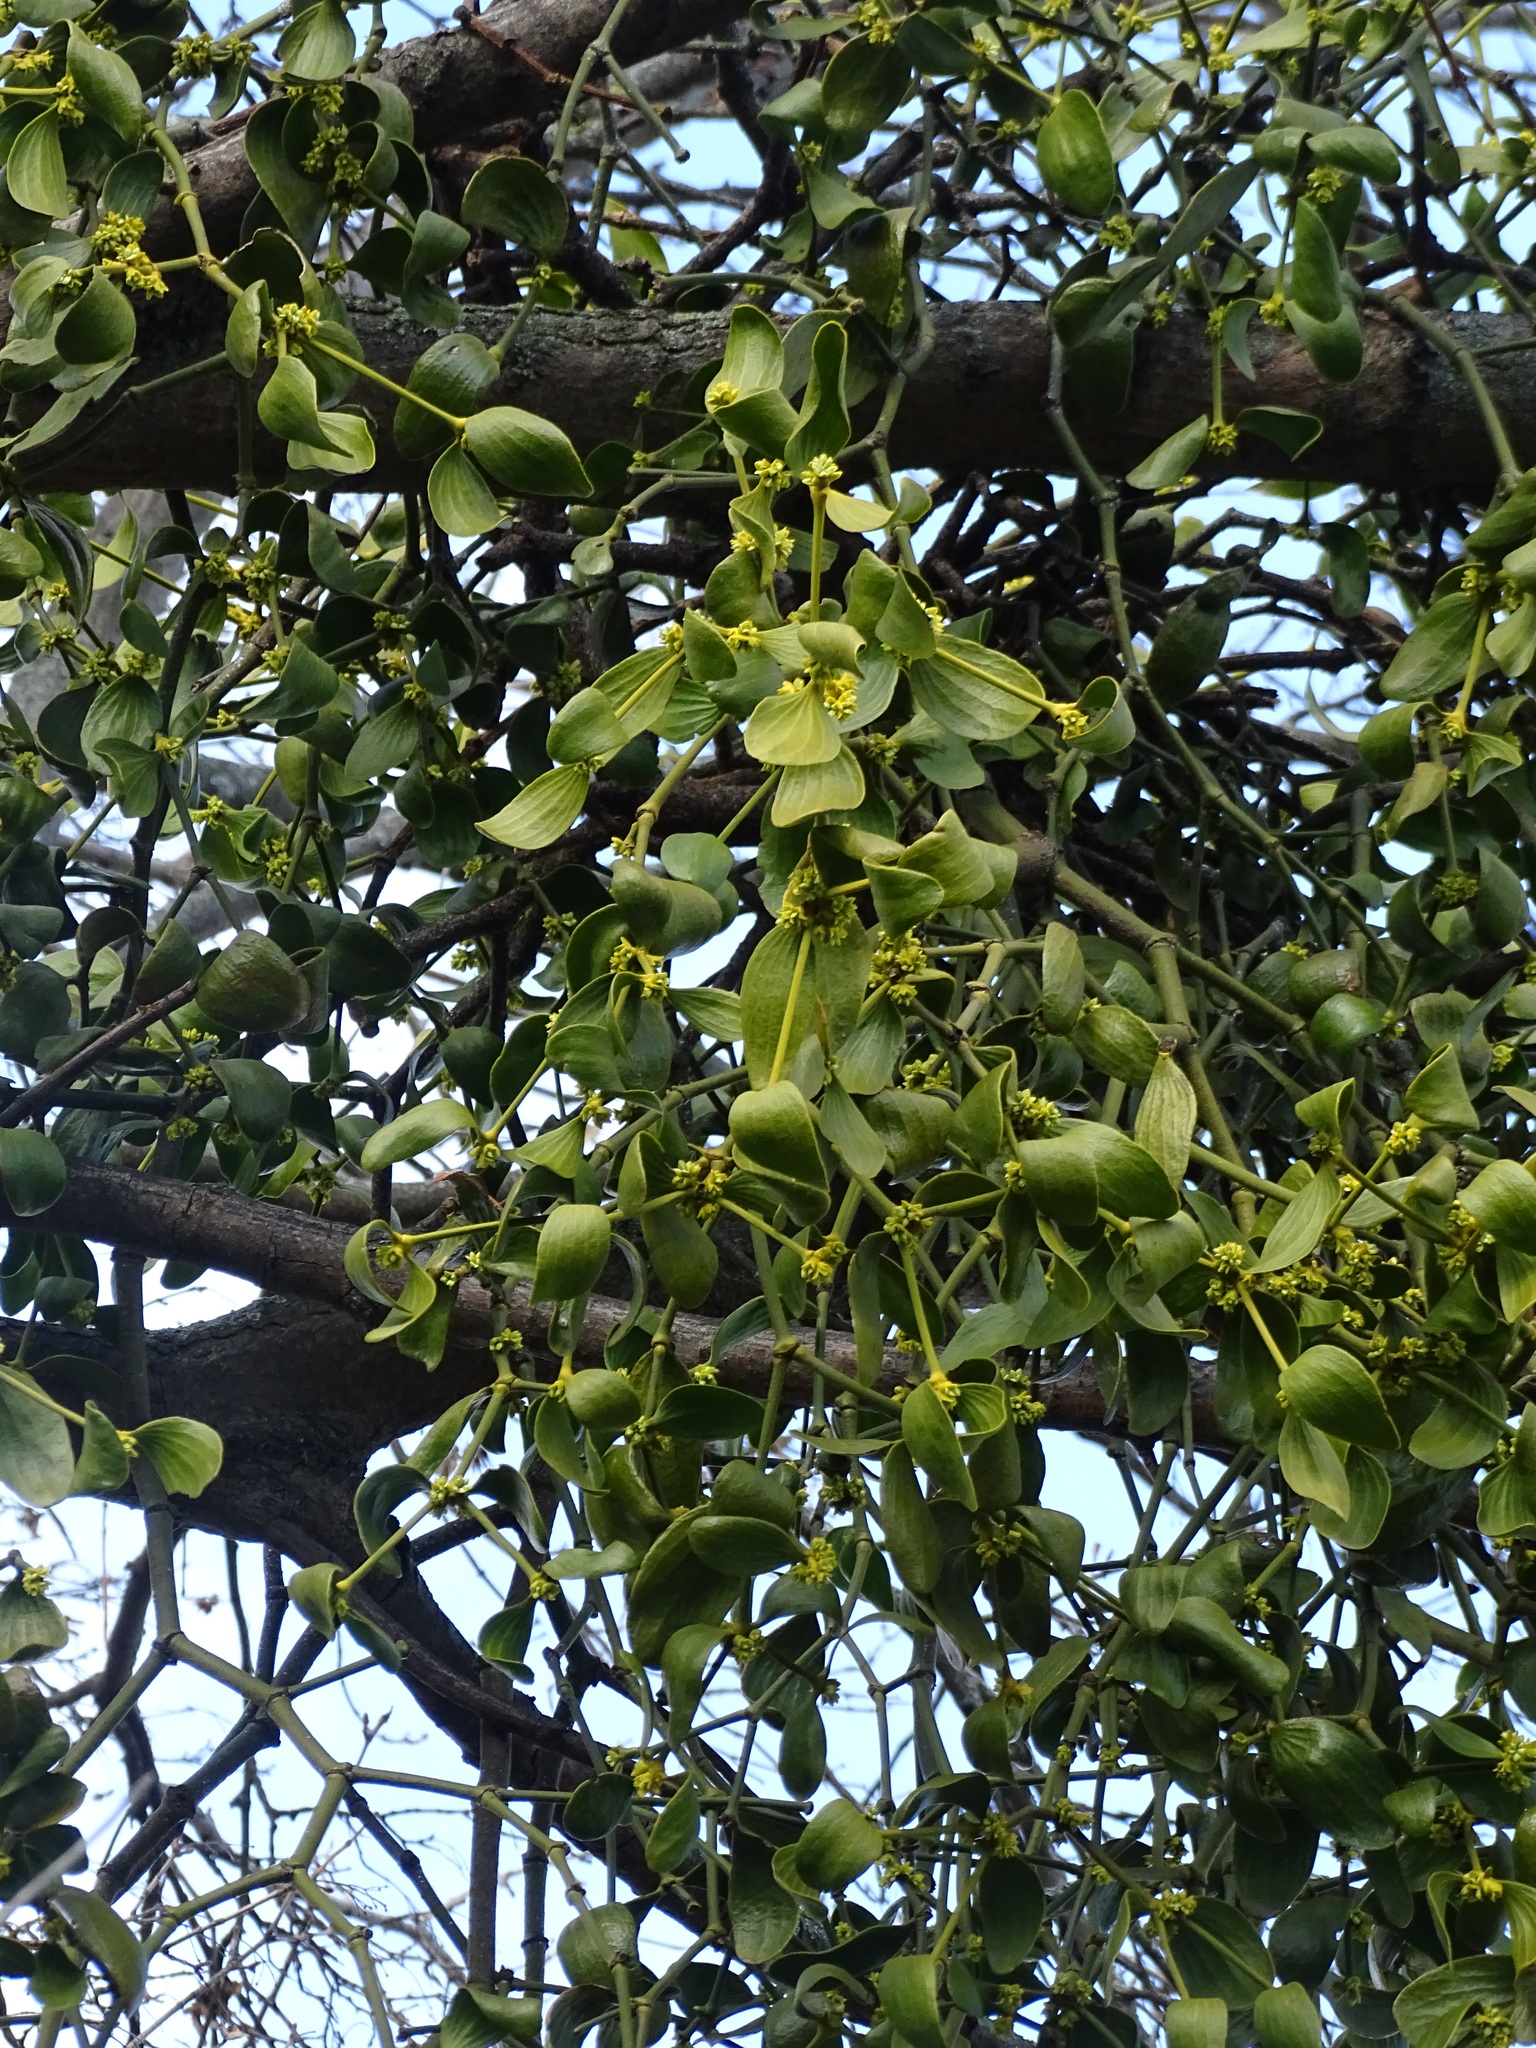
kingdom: Plantae
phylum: Tracheophyta
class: Magnoliopsida
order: Santalales
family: Viscaceae
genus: Viscum
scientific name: Viscum album
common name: Mistletoe
